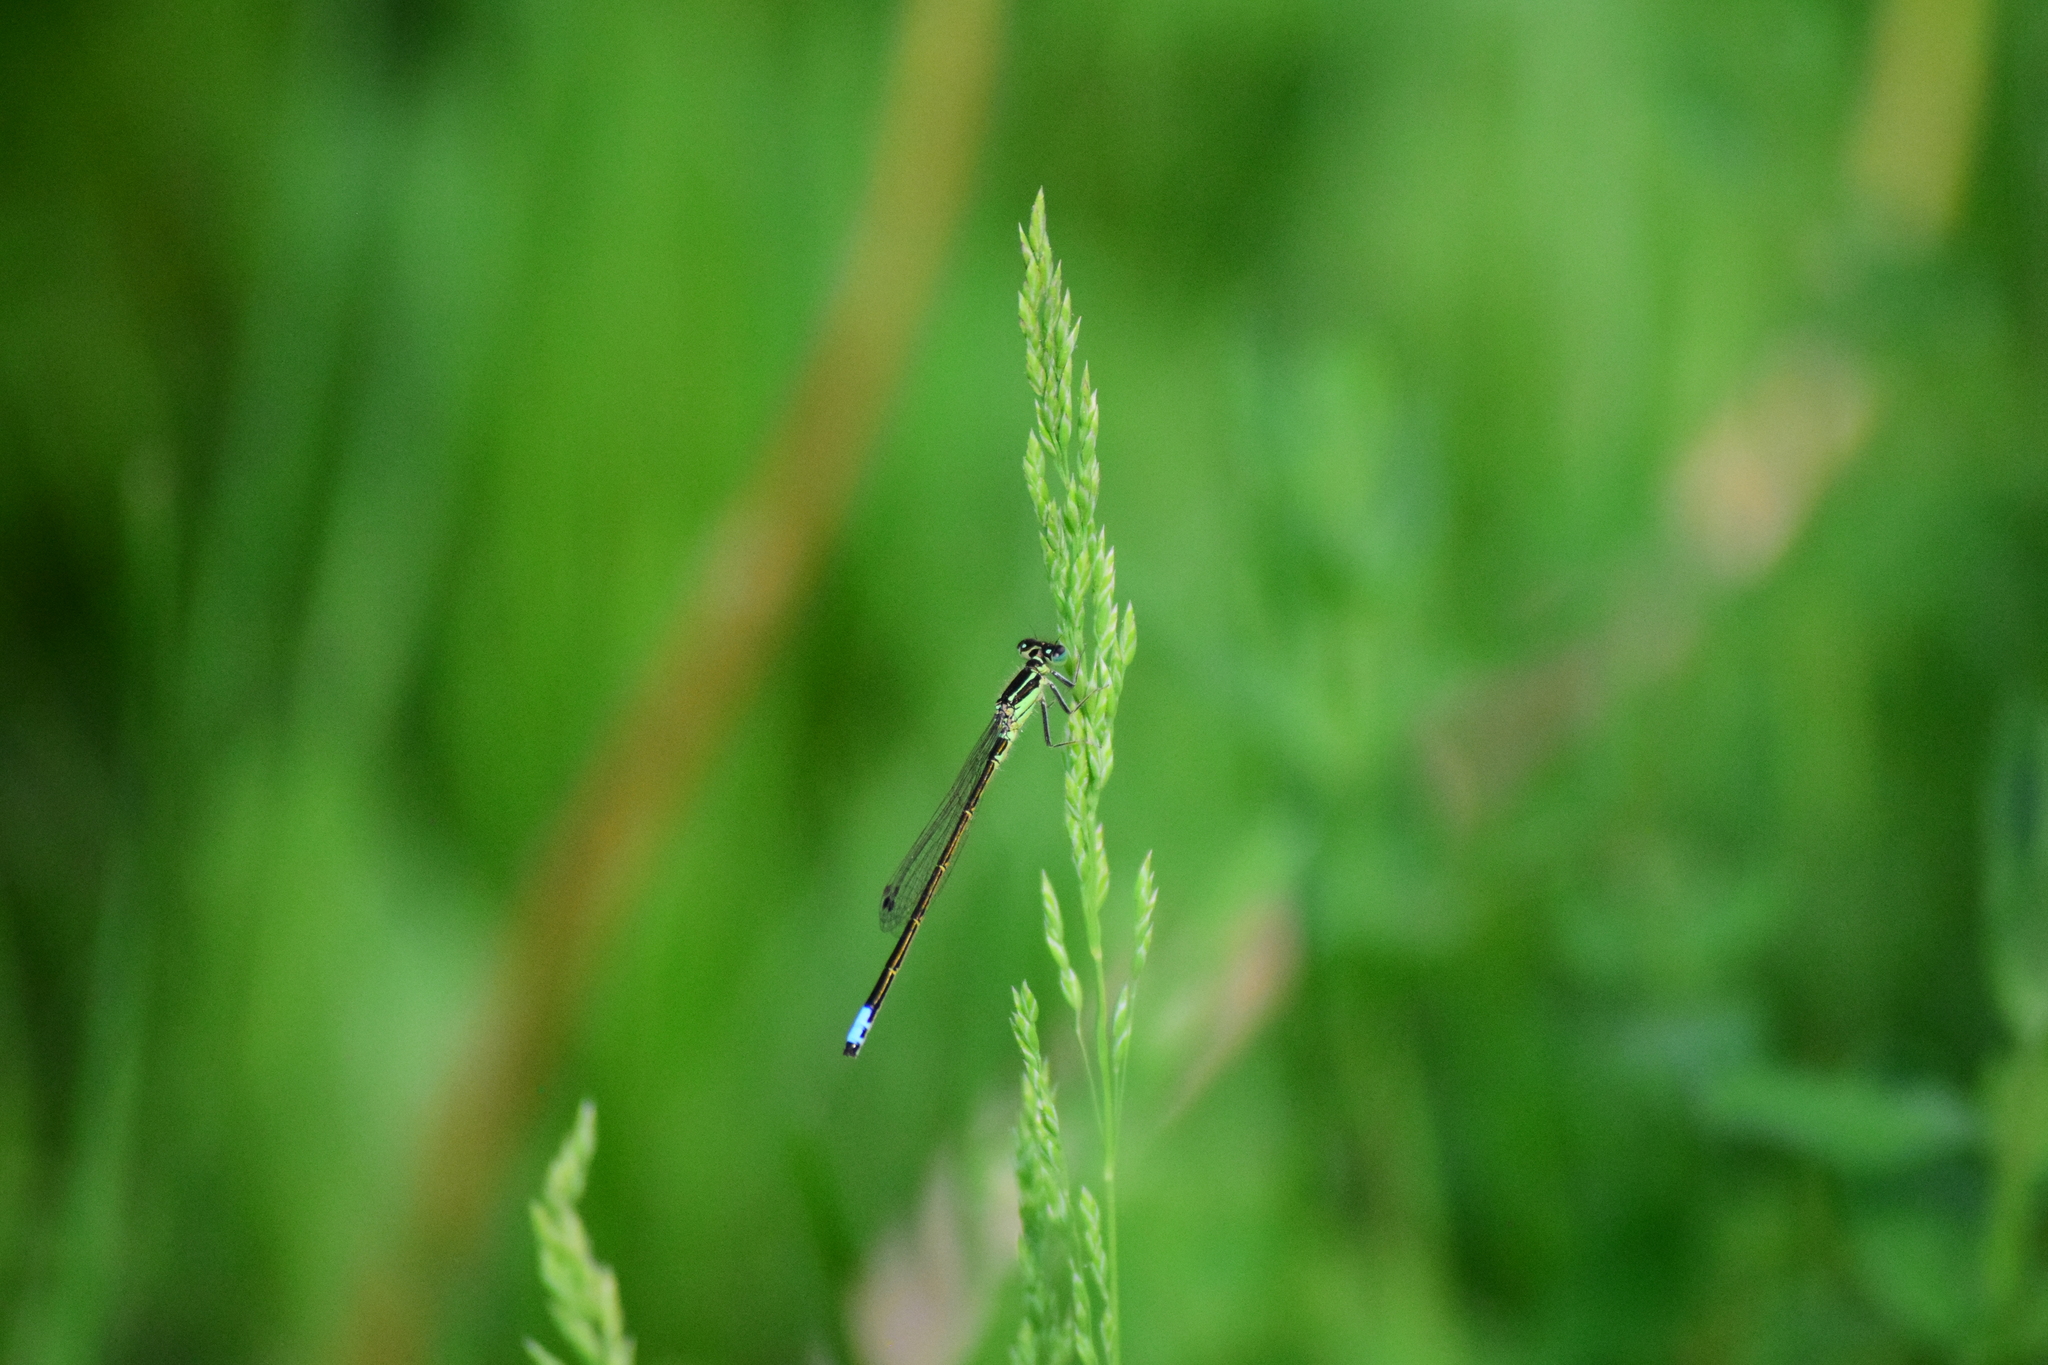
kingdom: Animalia
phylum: Arthropoda
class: Insecta
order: Odonata
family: Coenagrionidae
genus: Ischnura
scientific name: Ischnura verticalis
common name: Eastern forktail
